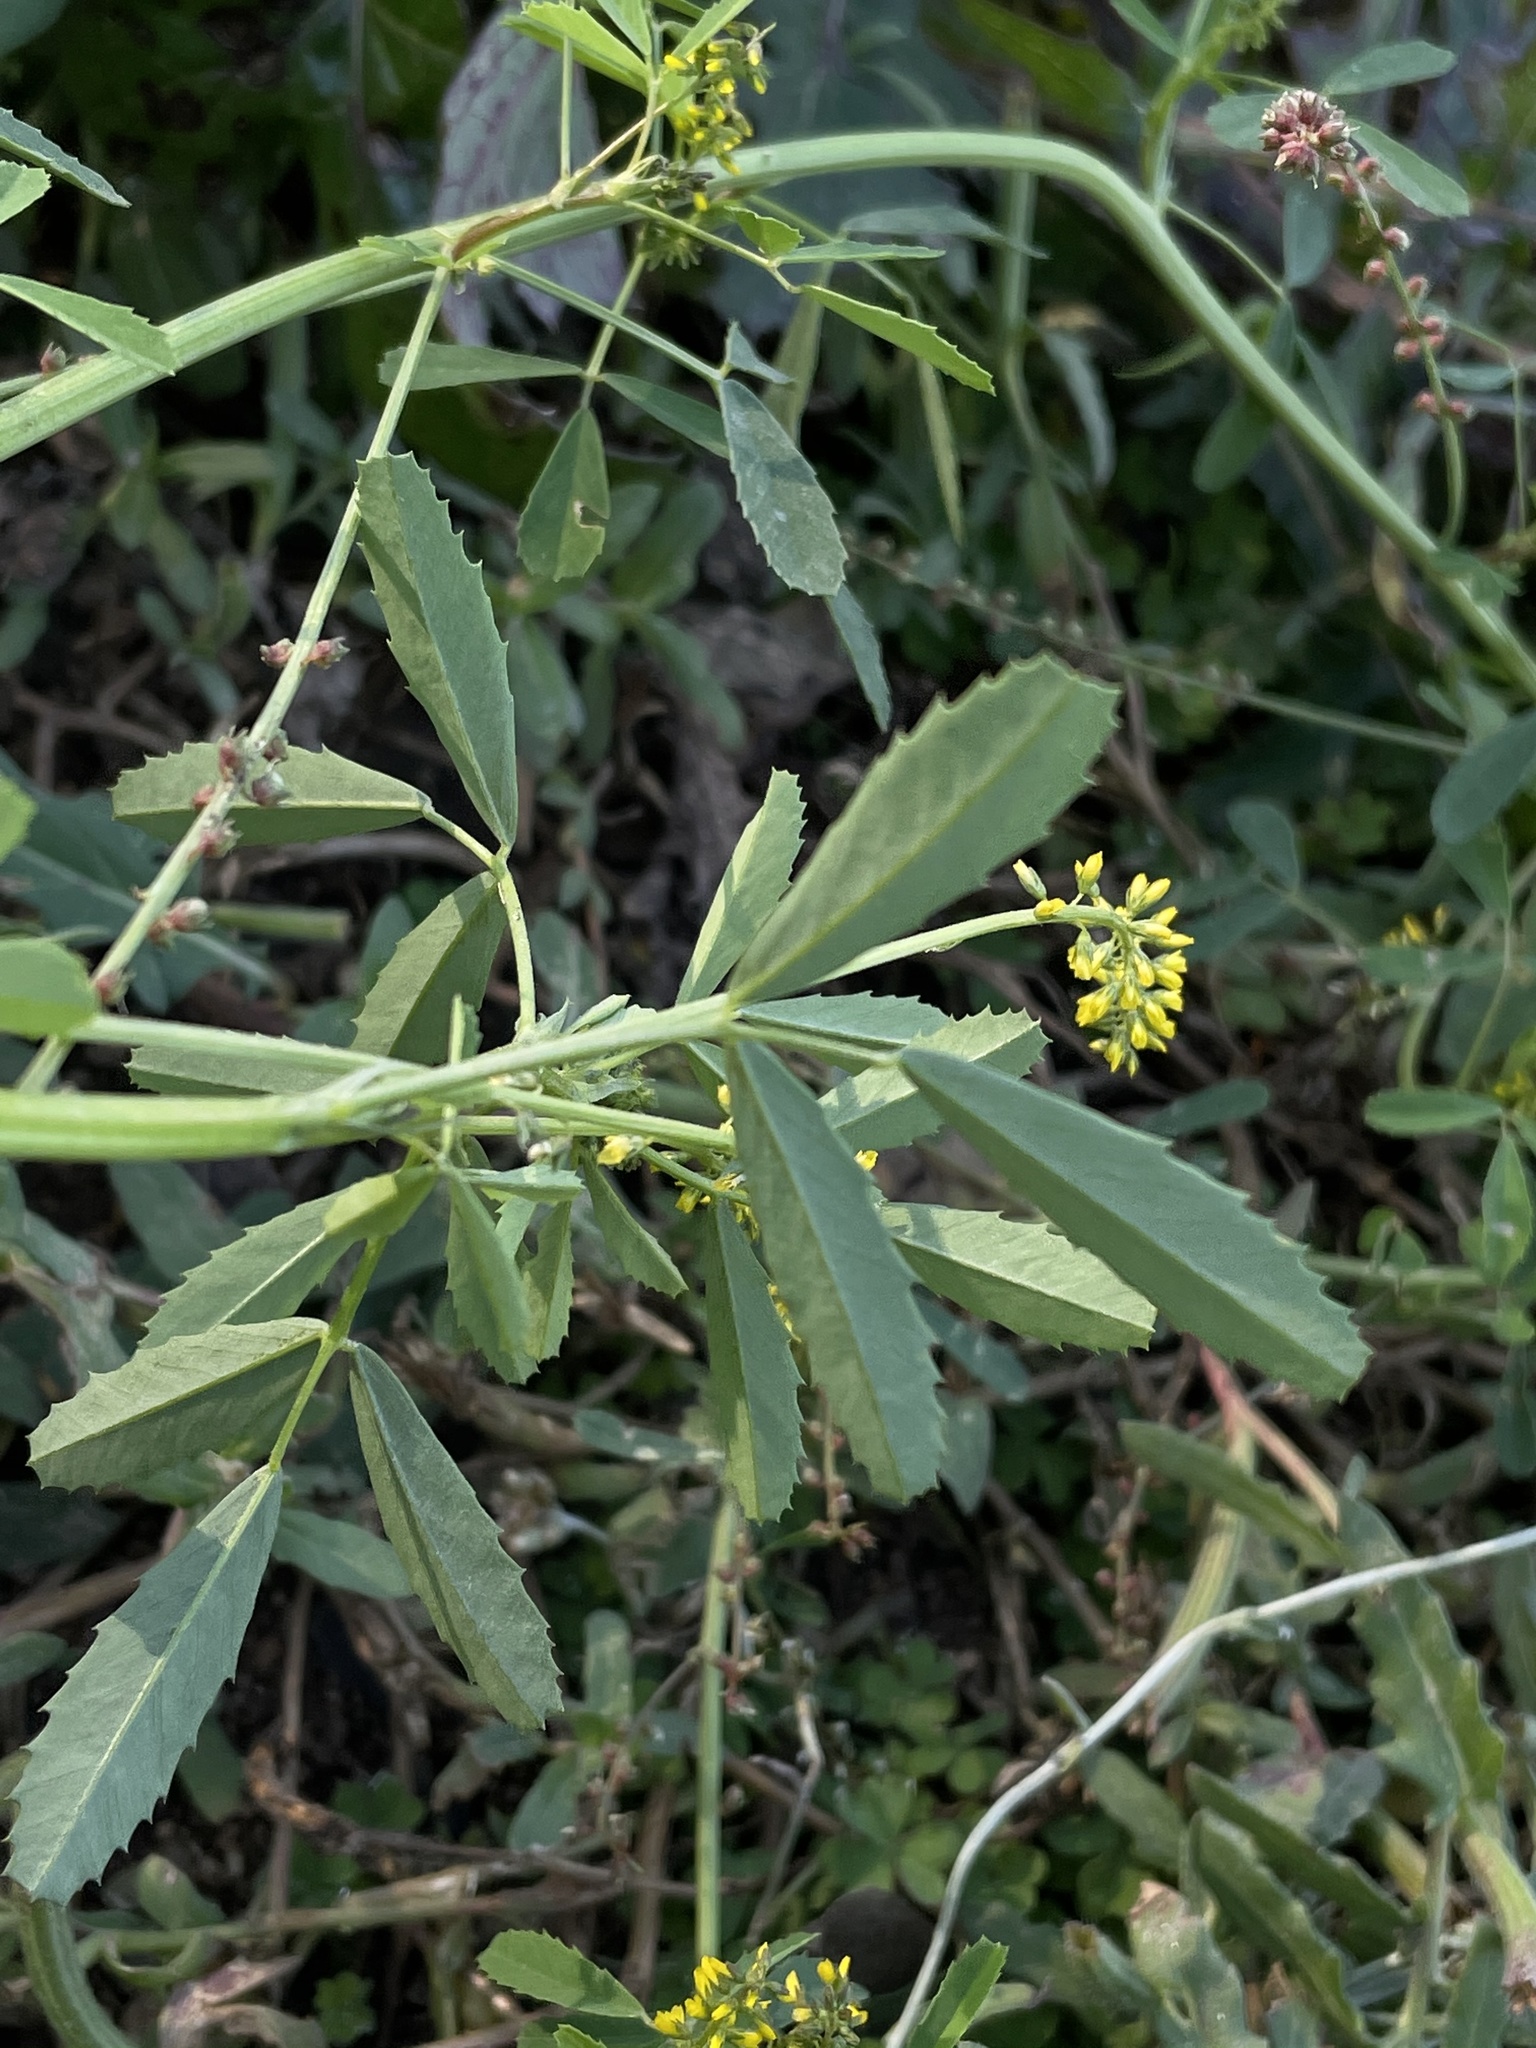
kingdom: Plantae
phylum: Tracheophyta
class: Magnoliopsida
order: Fabales
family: Fabaceae
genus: Melilotus
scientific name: Melilotus indicus
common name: Small melilot
